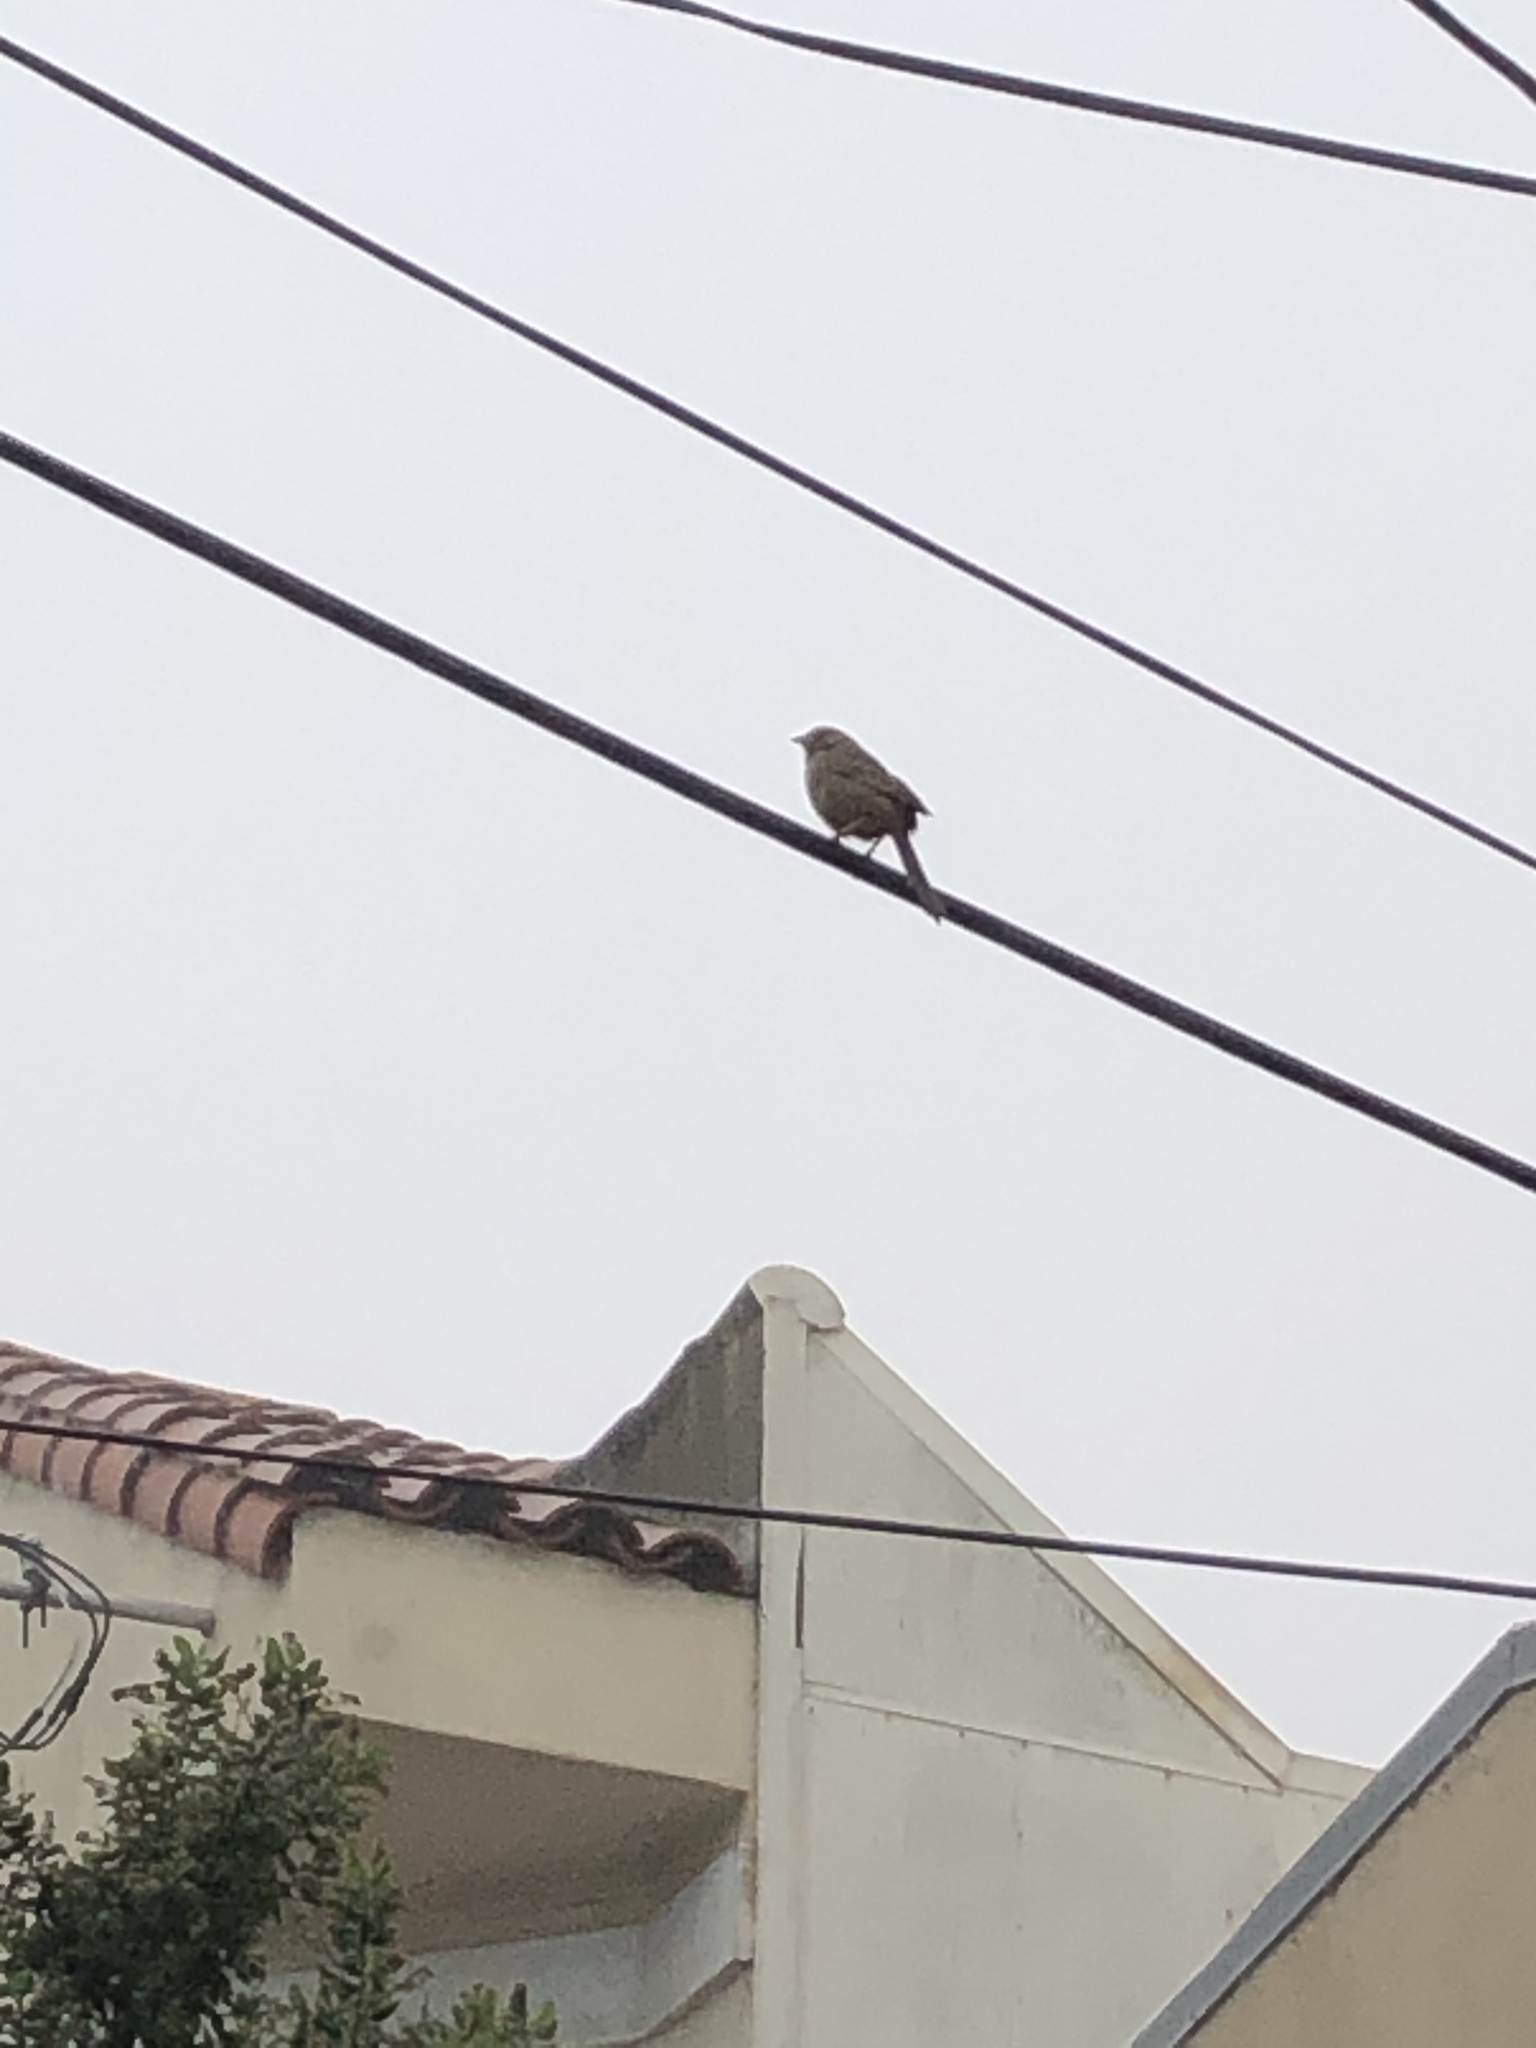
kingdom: Animalia
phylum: Chordata
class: Aves
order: Passeriformes
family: Passerellidae
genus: Melozone
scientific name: Melozone crissalis
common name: California towhee
